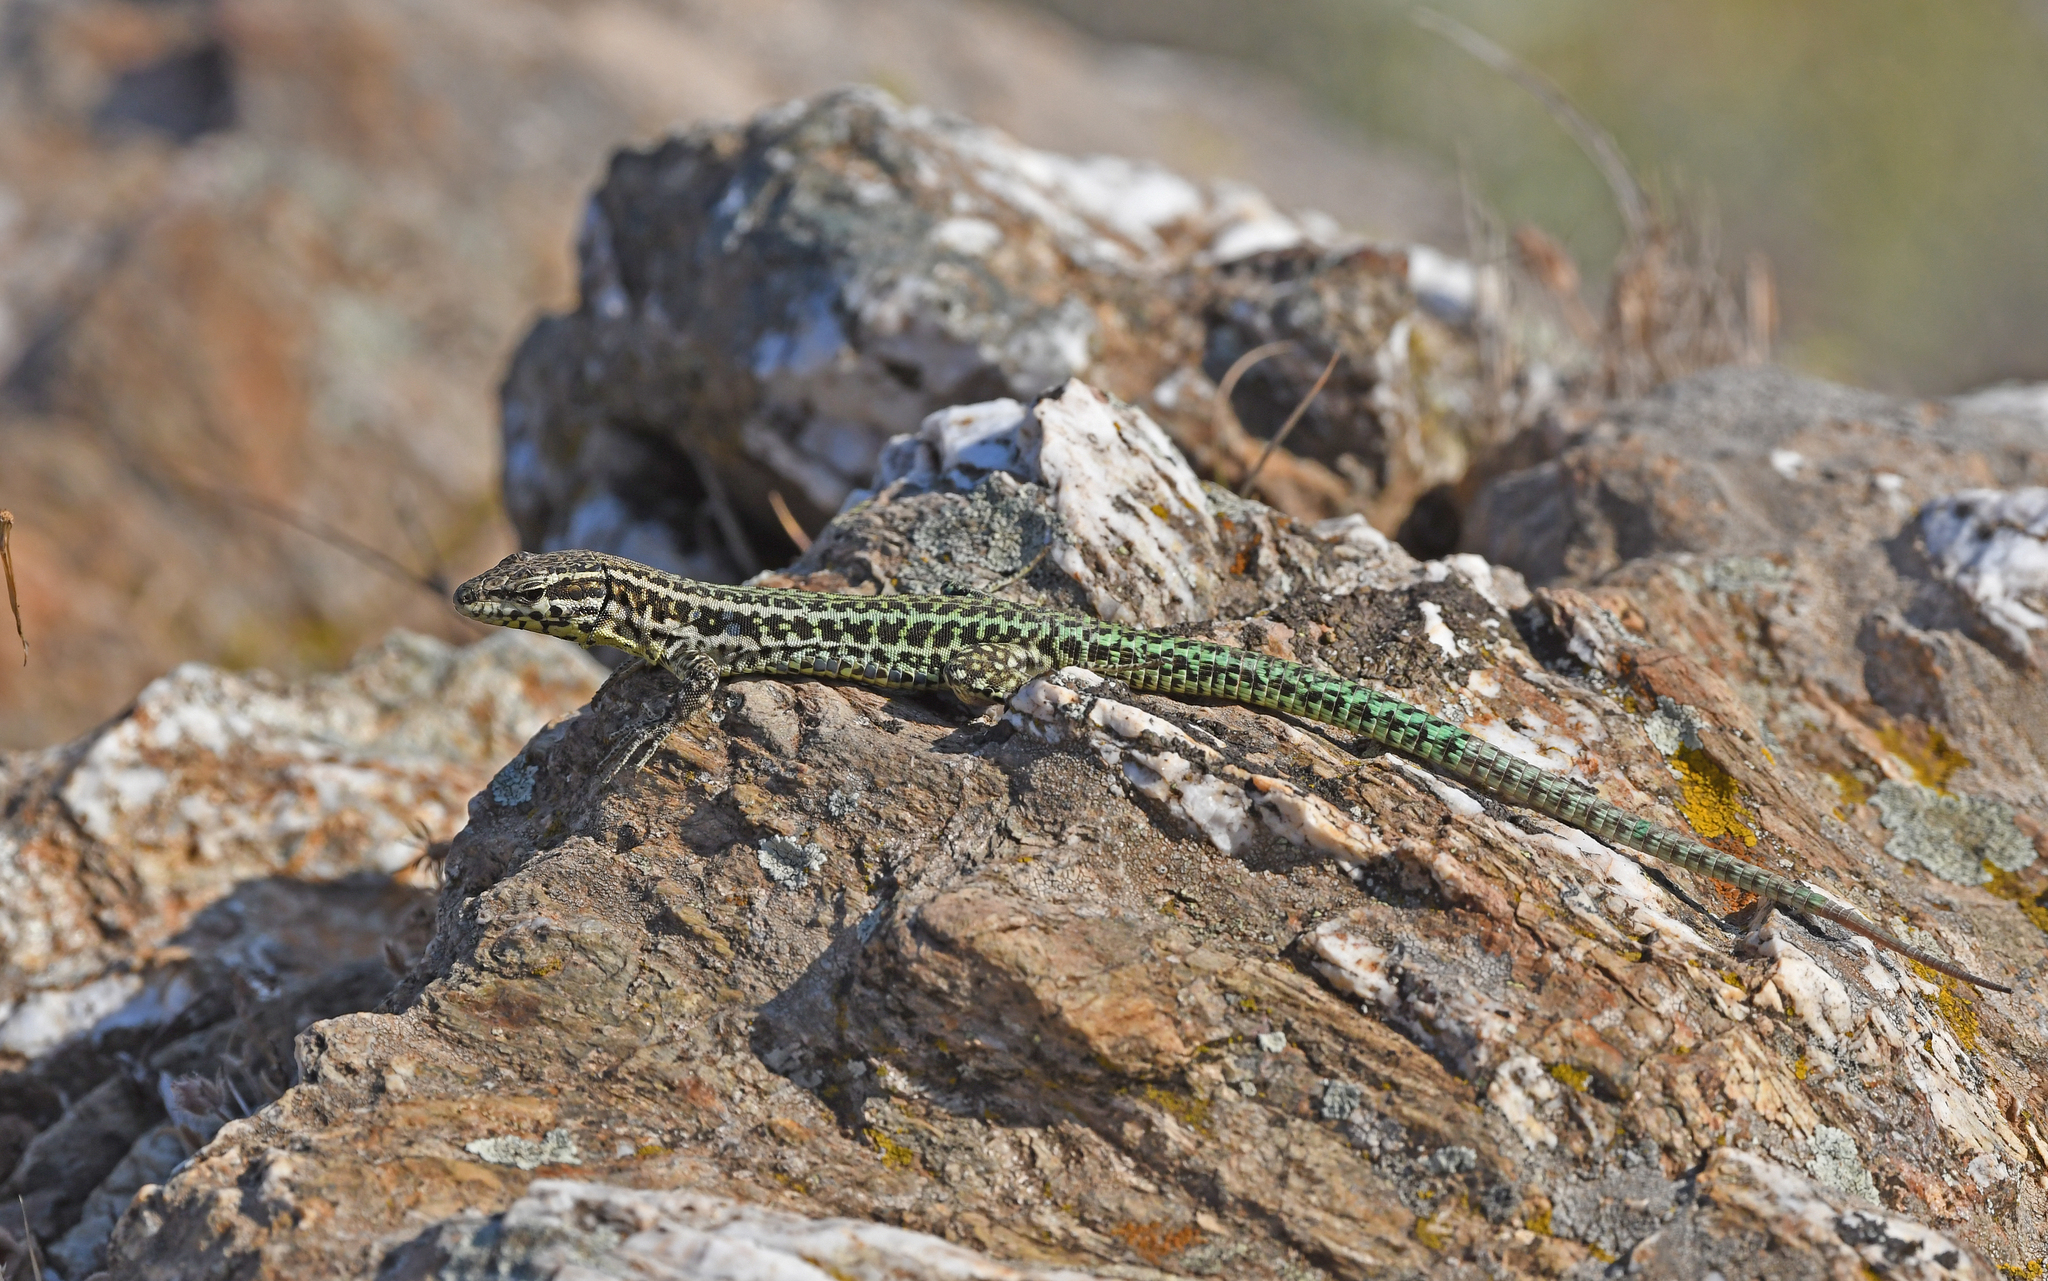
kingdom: Animalia
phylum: Chordata
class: Squamata
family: Lacertidae
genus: Podarcis
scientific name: Podarcis tiliguerta
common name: Tyrrhenian wall lizard
